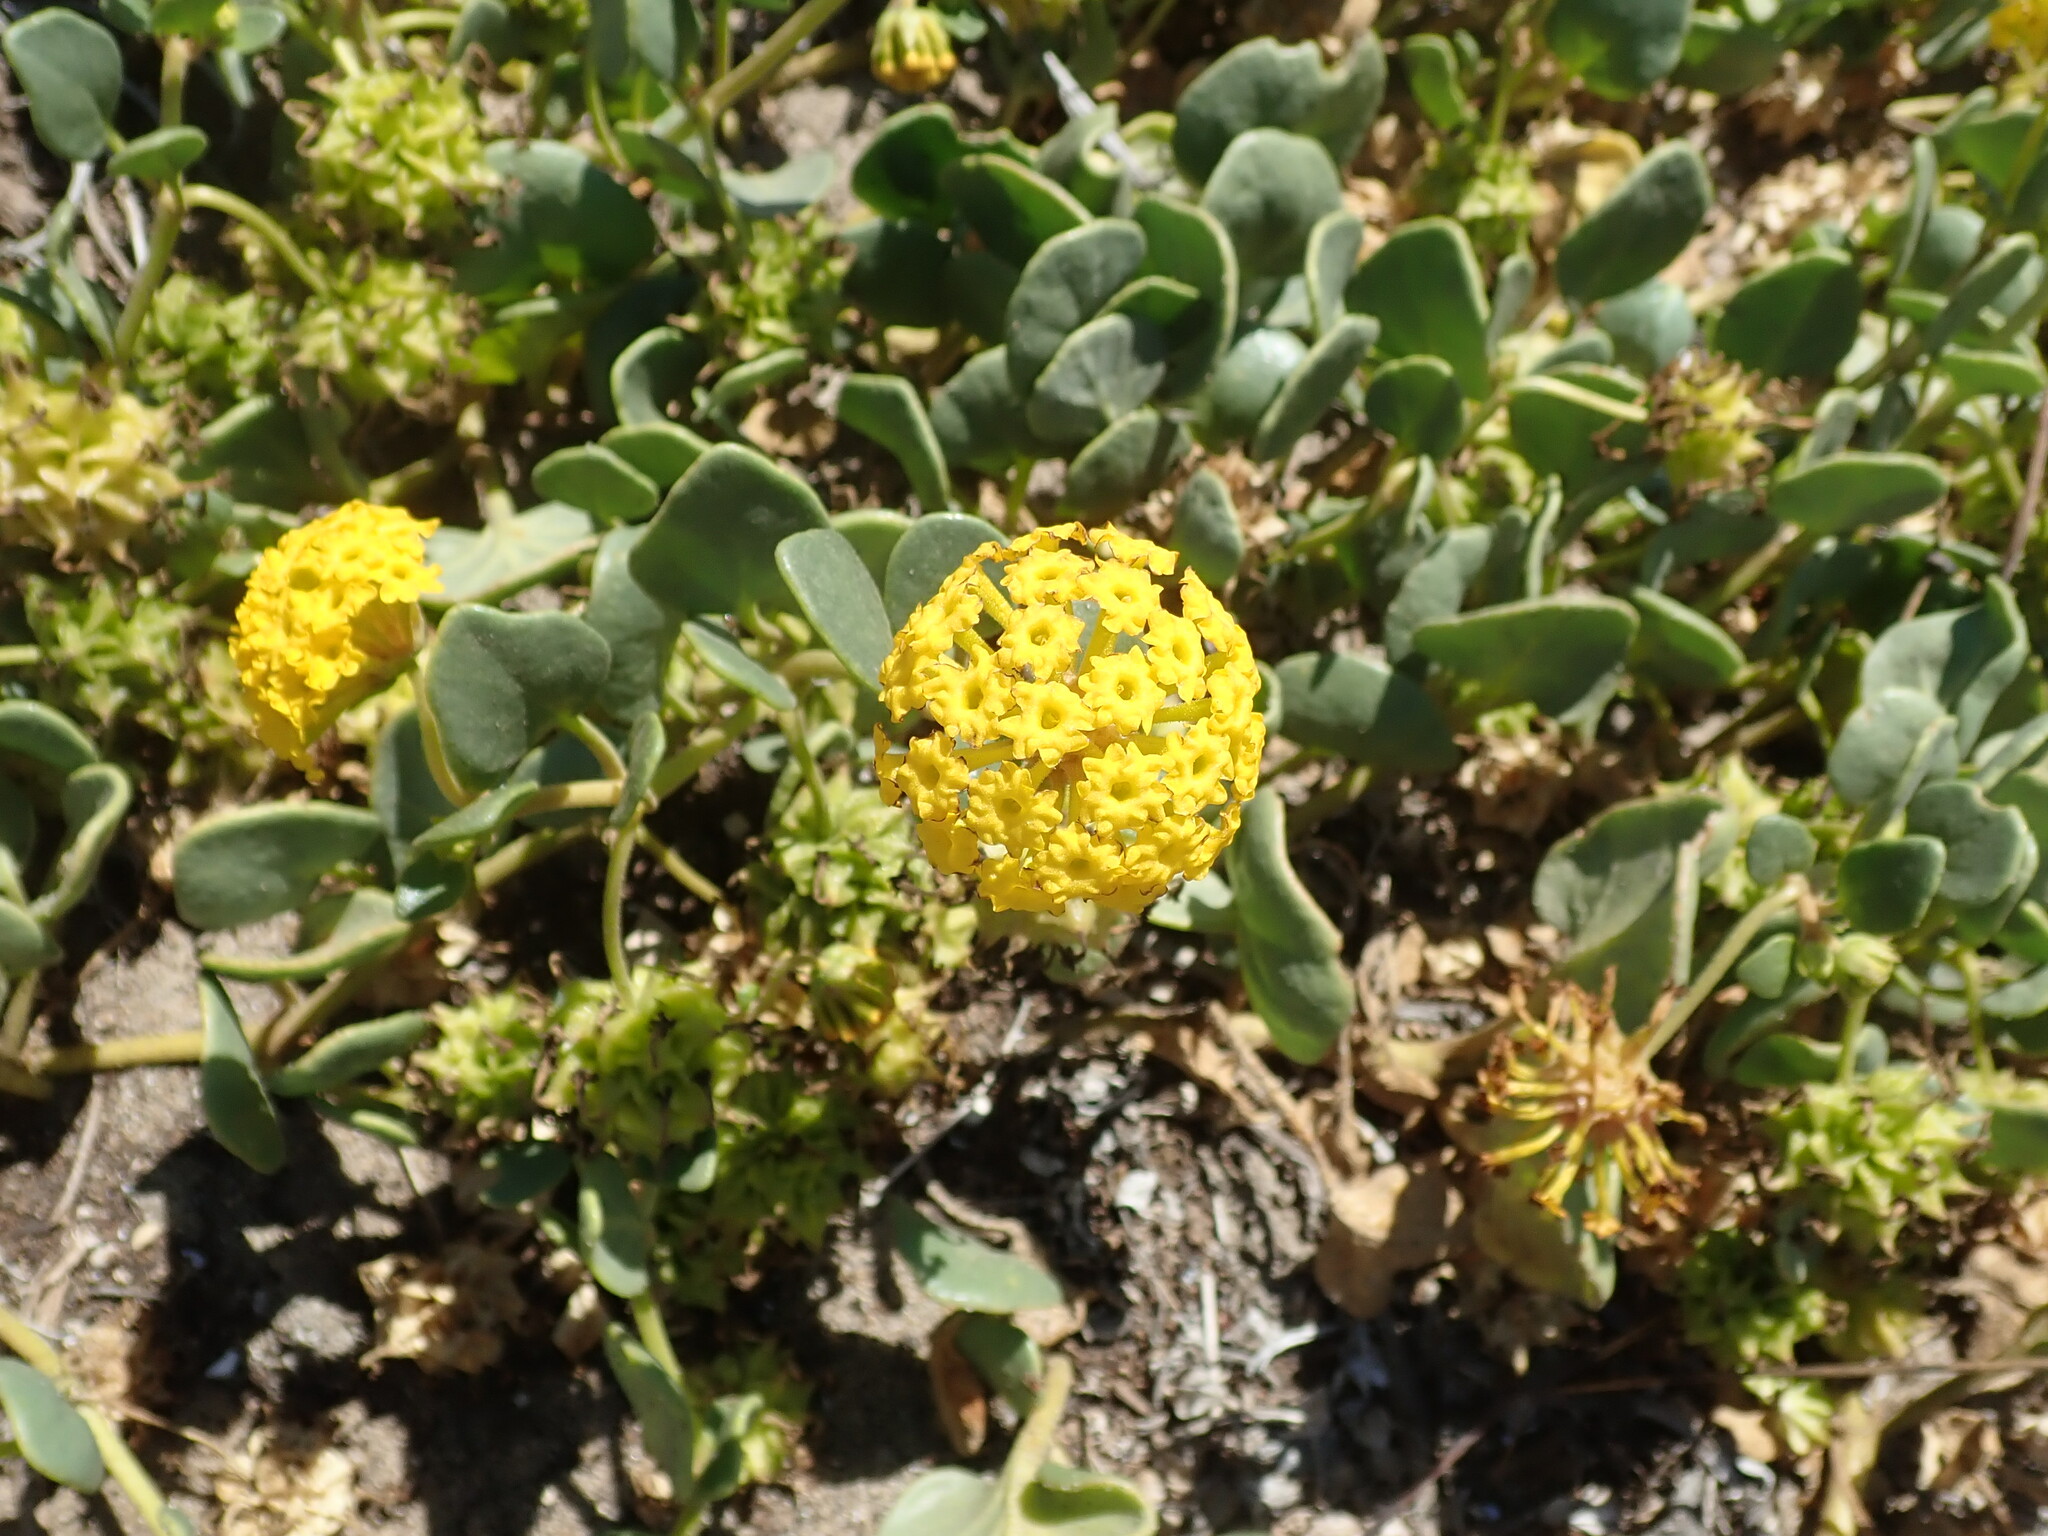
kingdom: Plantae
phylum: Tracheophyta
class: Magnoliopsida
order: Caryophyllales
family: Nyctaginaceae
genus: Abronia
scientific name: Abronia latifolia
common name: Yellow sand-verbena
